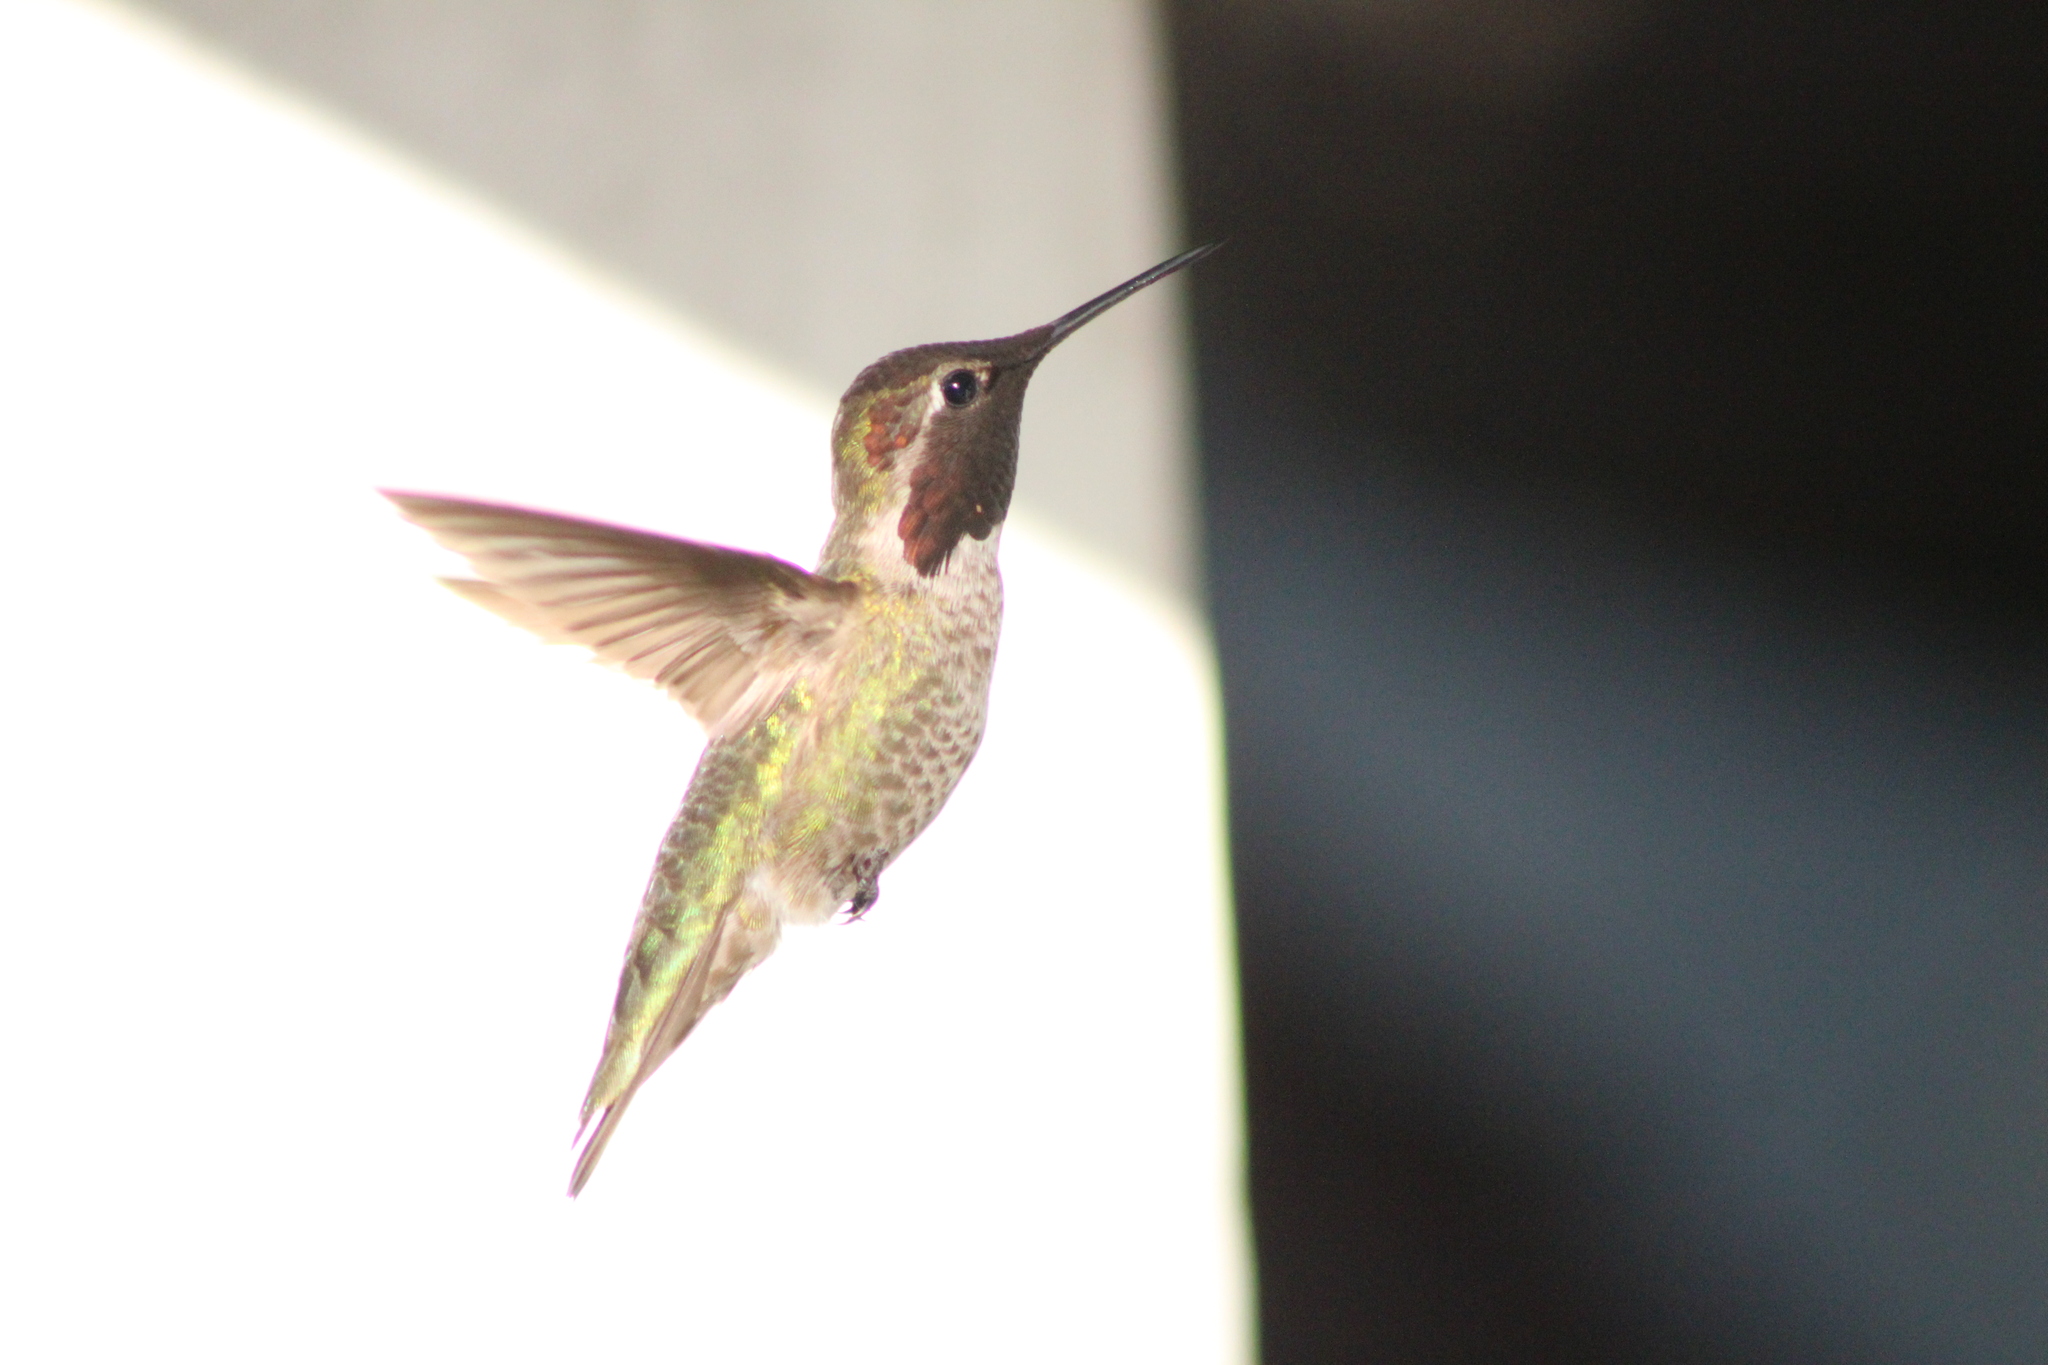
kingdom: Animalia
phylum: Chordata
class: Aves
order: Apodiformes
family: Trochilidae
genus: Calypte
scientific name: Calypte anna
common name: Anna's hummingbird
